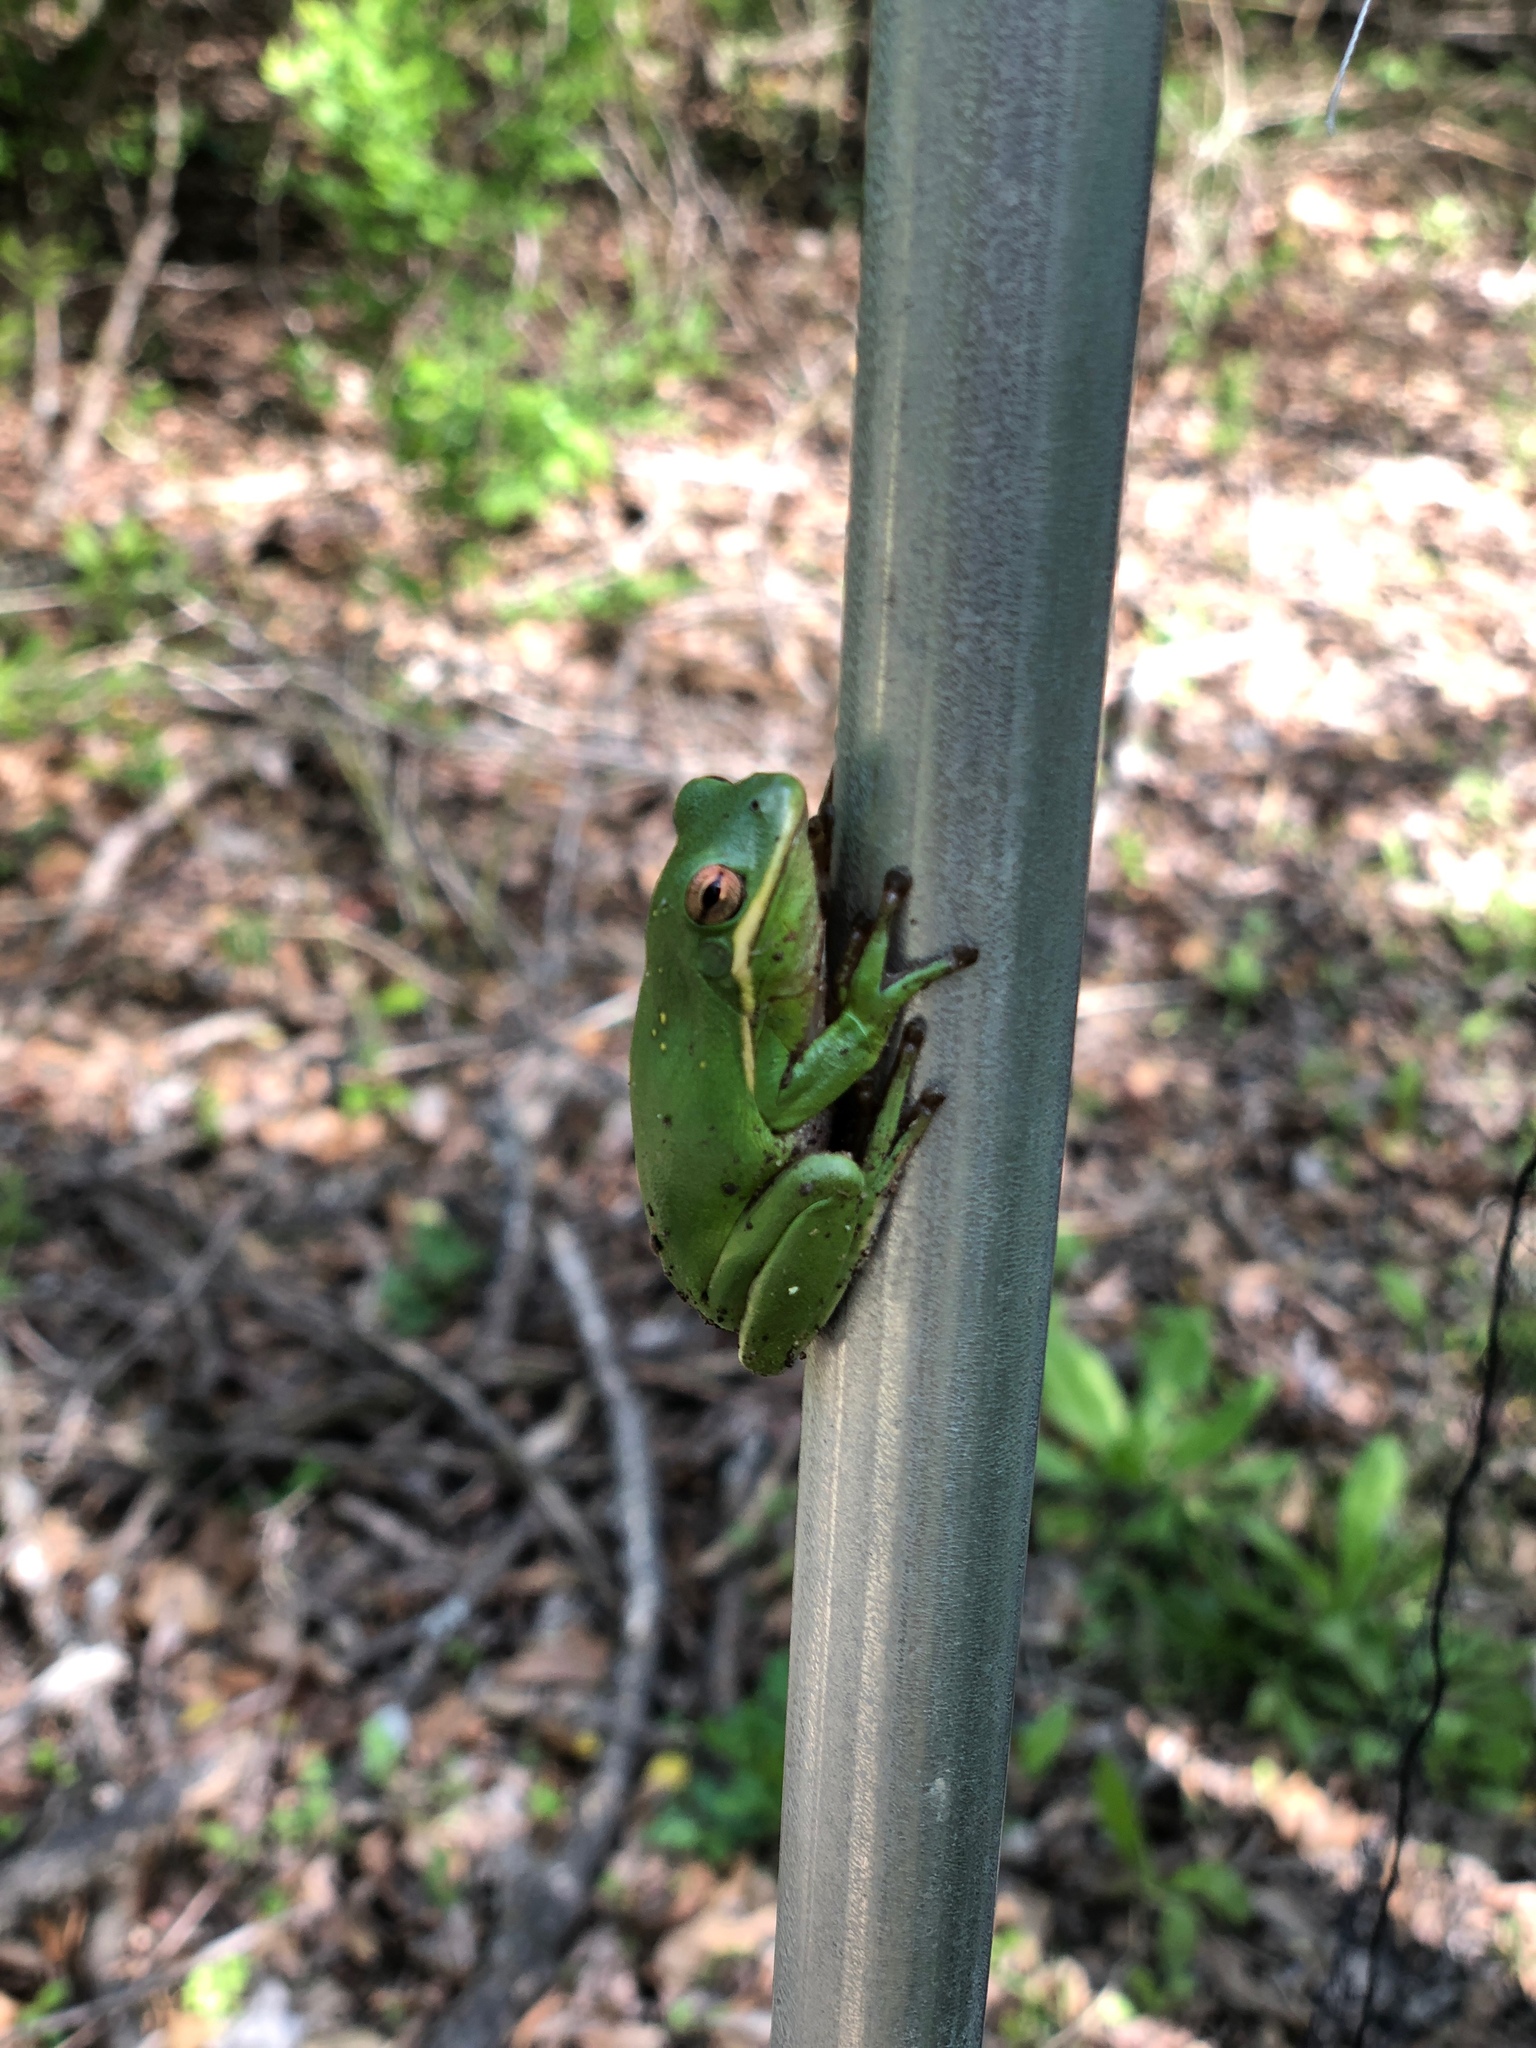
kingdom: Animalia
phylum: Chordata
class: Amphibia
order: Anura
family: Hylidae
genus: Dryophytes
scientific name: Dryophytes cinereus
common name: Green treefrog
